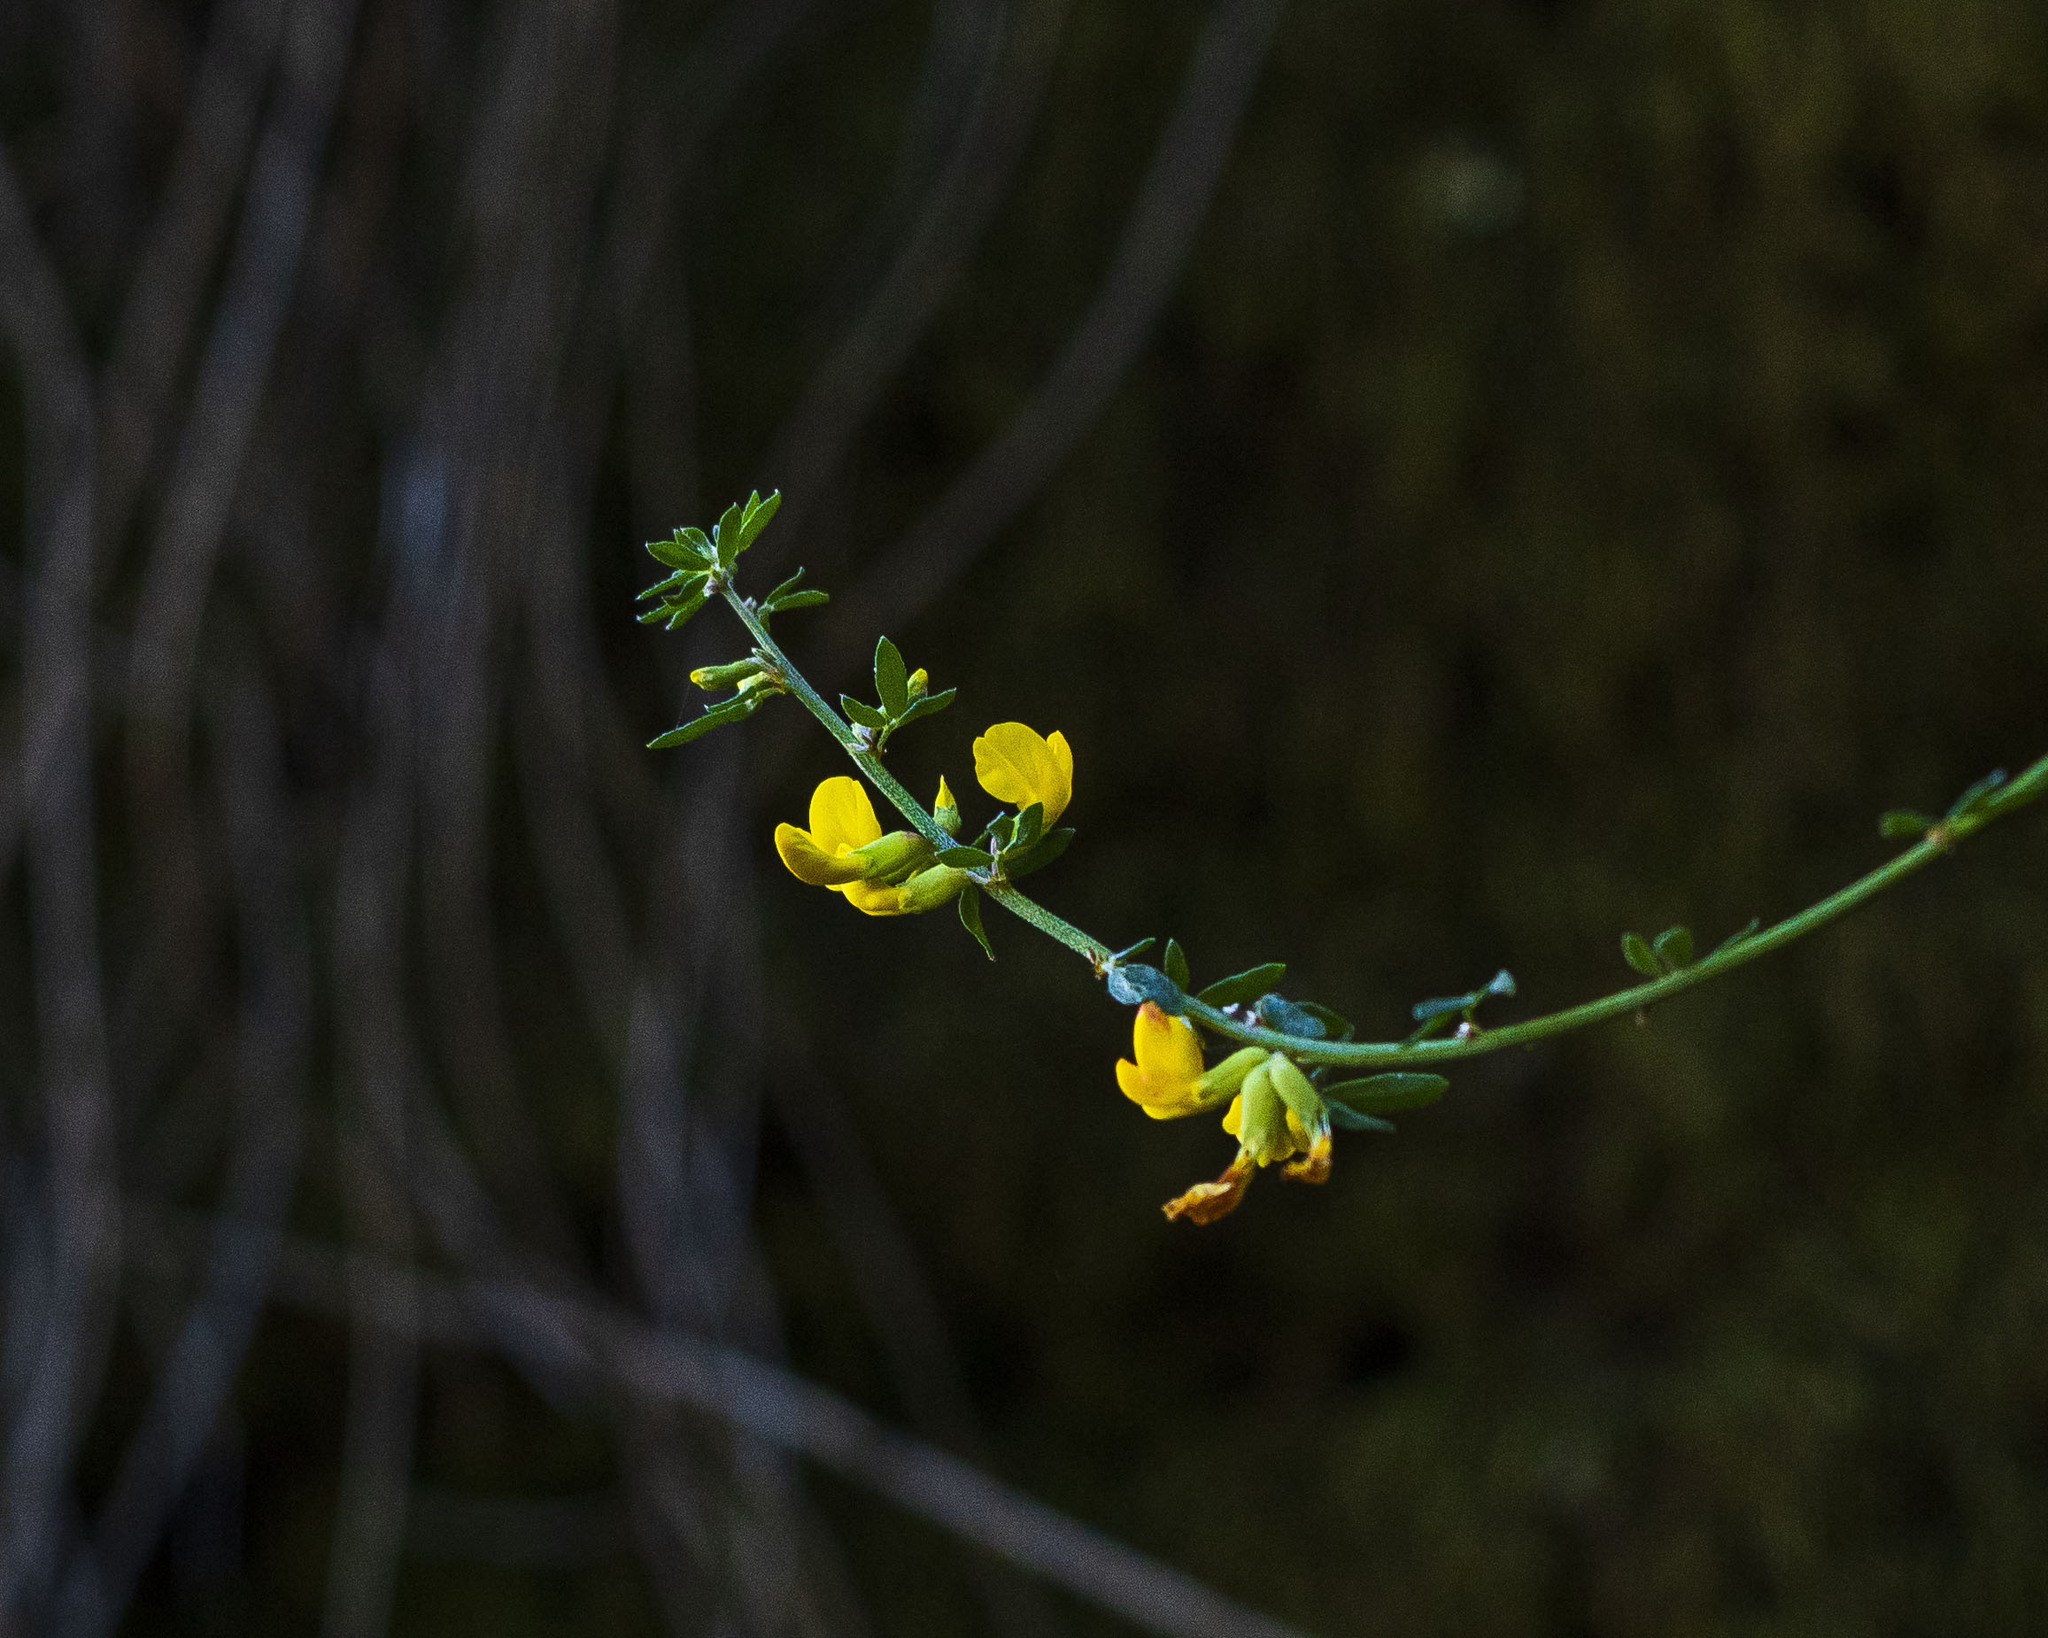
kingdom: Plantae
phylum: Tracheophyta
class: Magnoliopsida
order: Fabales
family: Fabaceae
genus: Acmispon
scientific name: Acmispon glaber
